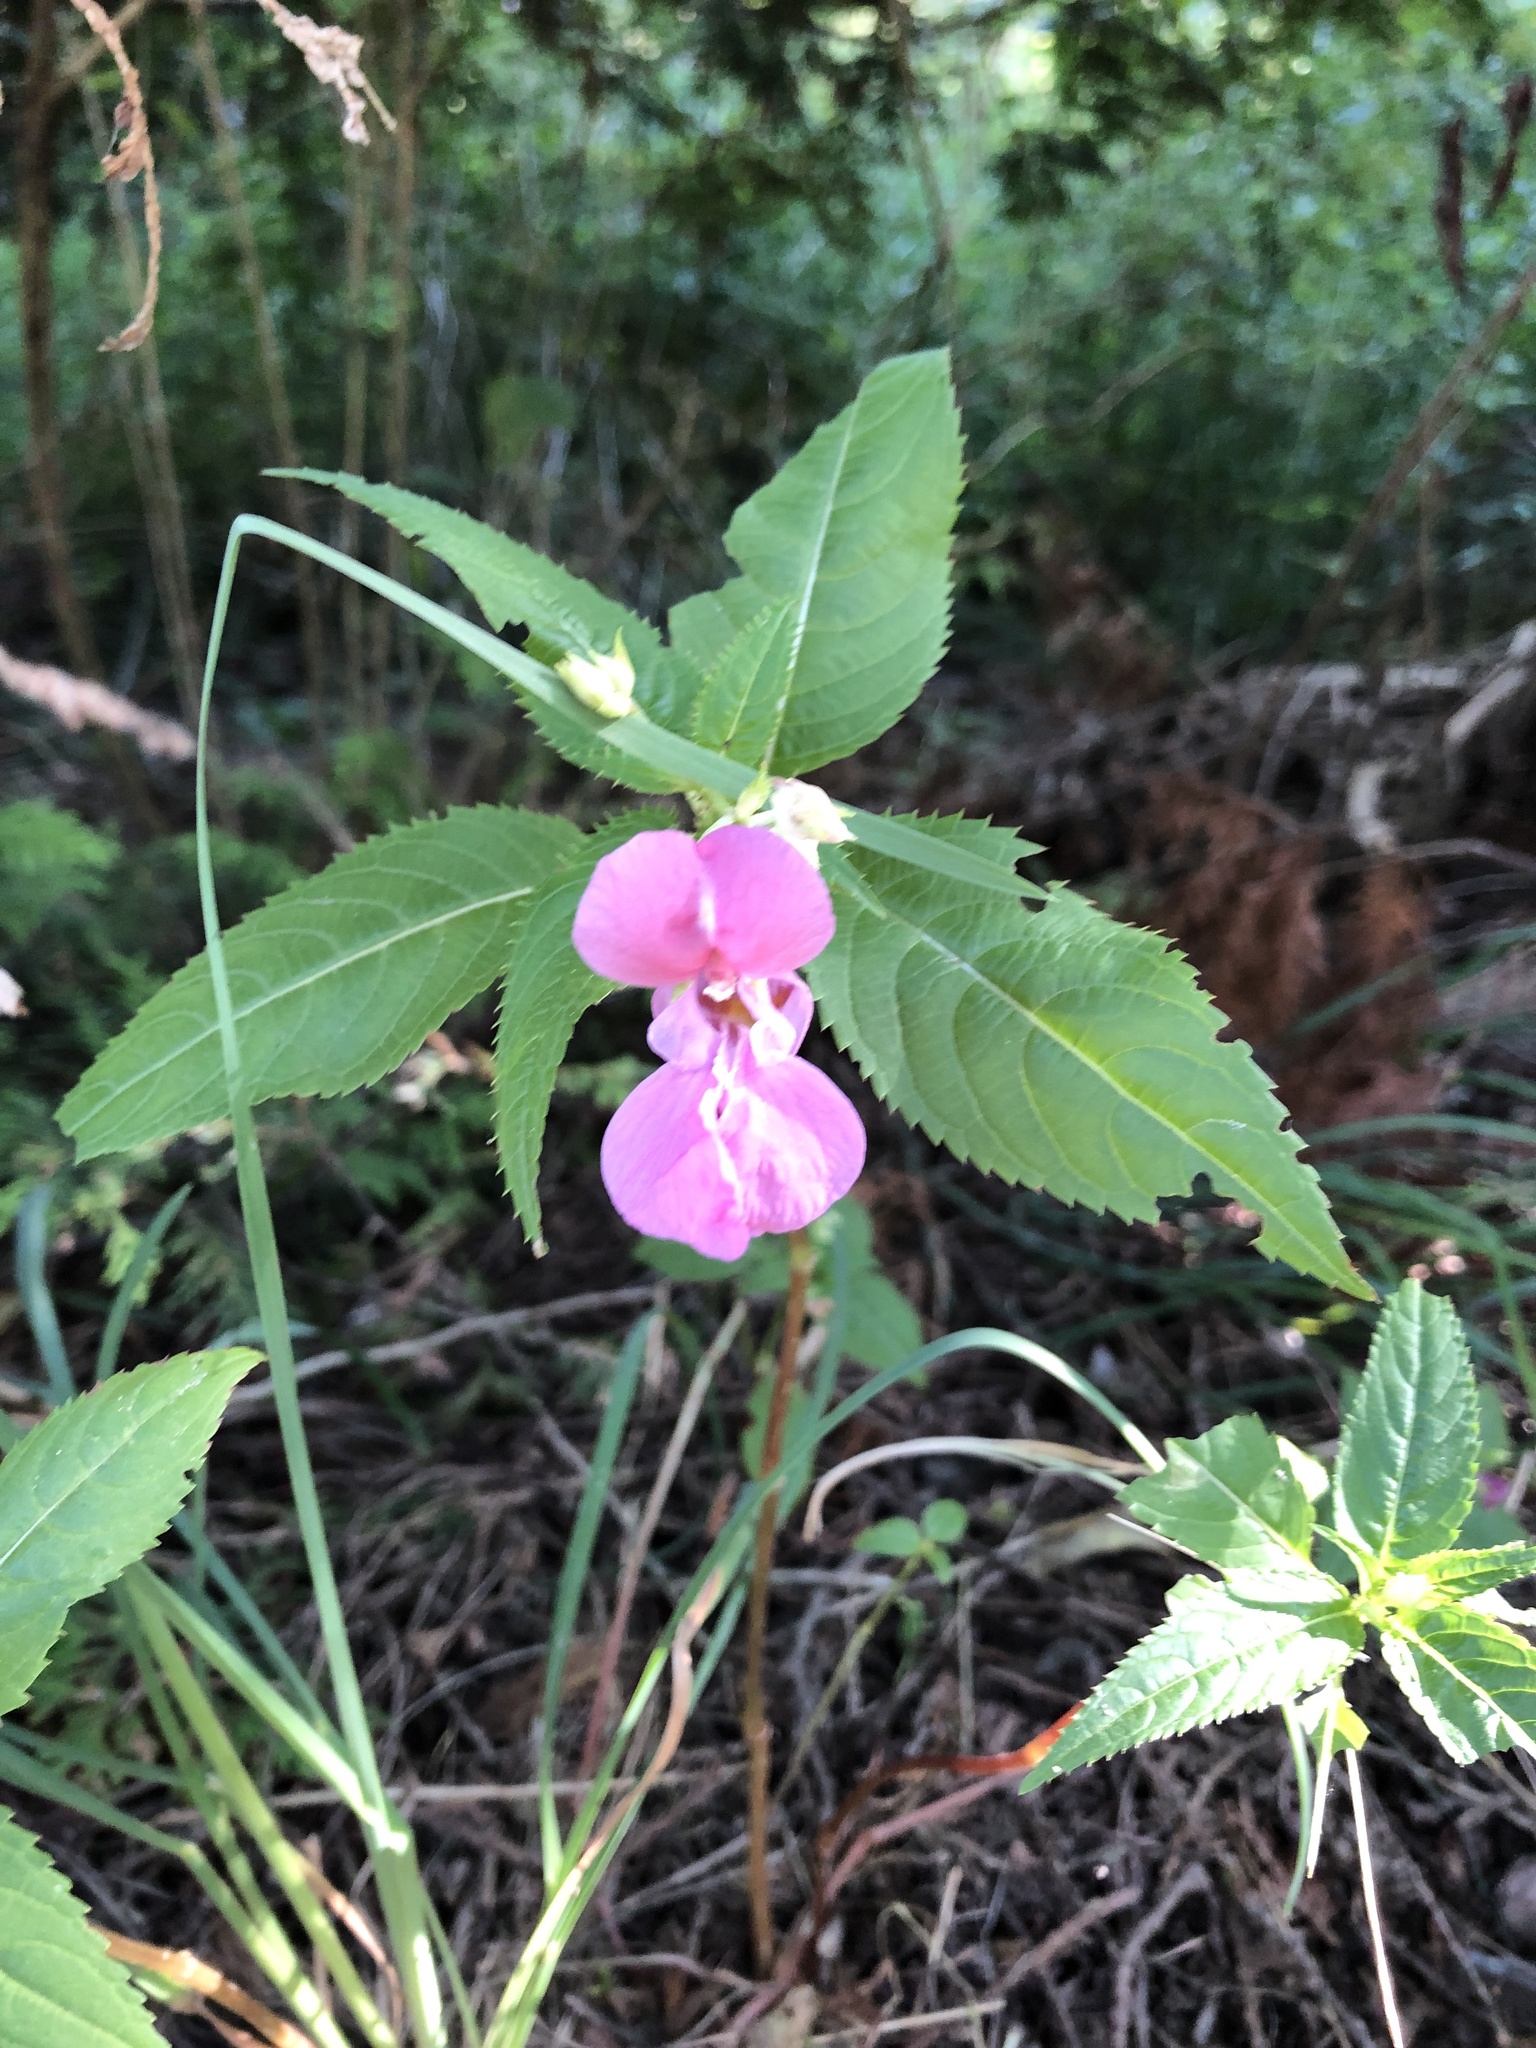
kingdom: Plantae
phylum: Tracheophyta
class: Magnoliopsida
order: Ericales
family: Balsaminaceae
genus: Impatiens
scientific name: Impatiens glandulifera
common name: Himalayan balsam
